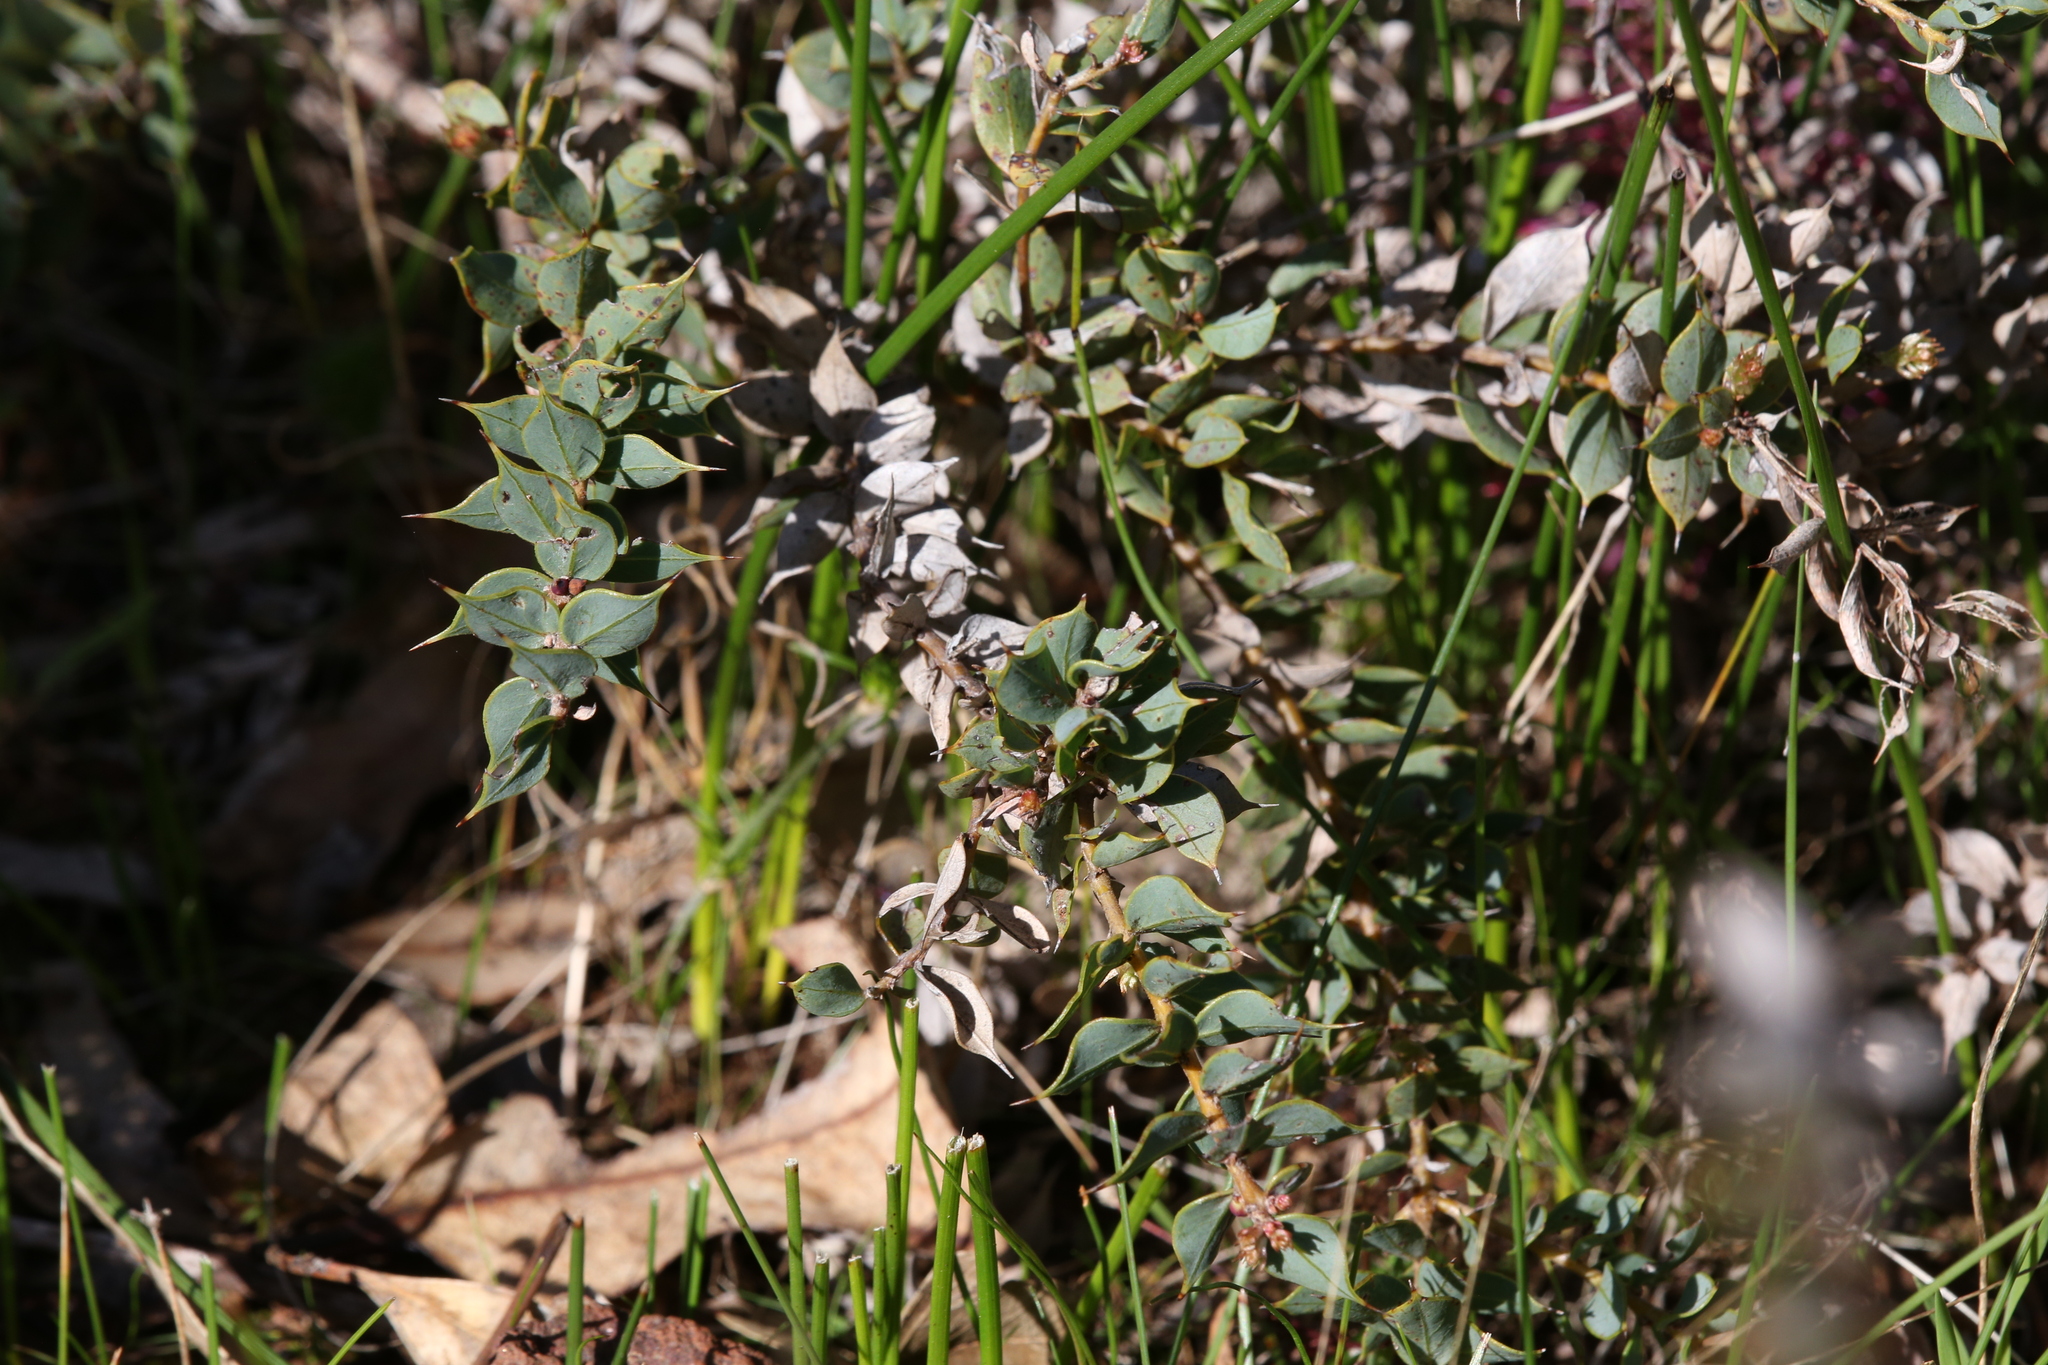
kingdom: Plantae
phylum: Tracheophyta
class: Magnoliopsida
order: Proteales
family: Proteaceae
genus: Hakea
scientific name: Hakea myrtoides
